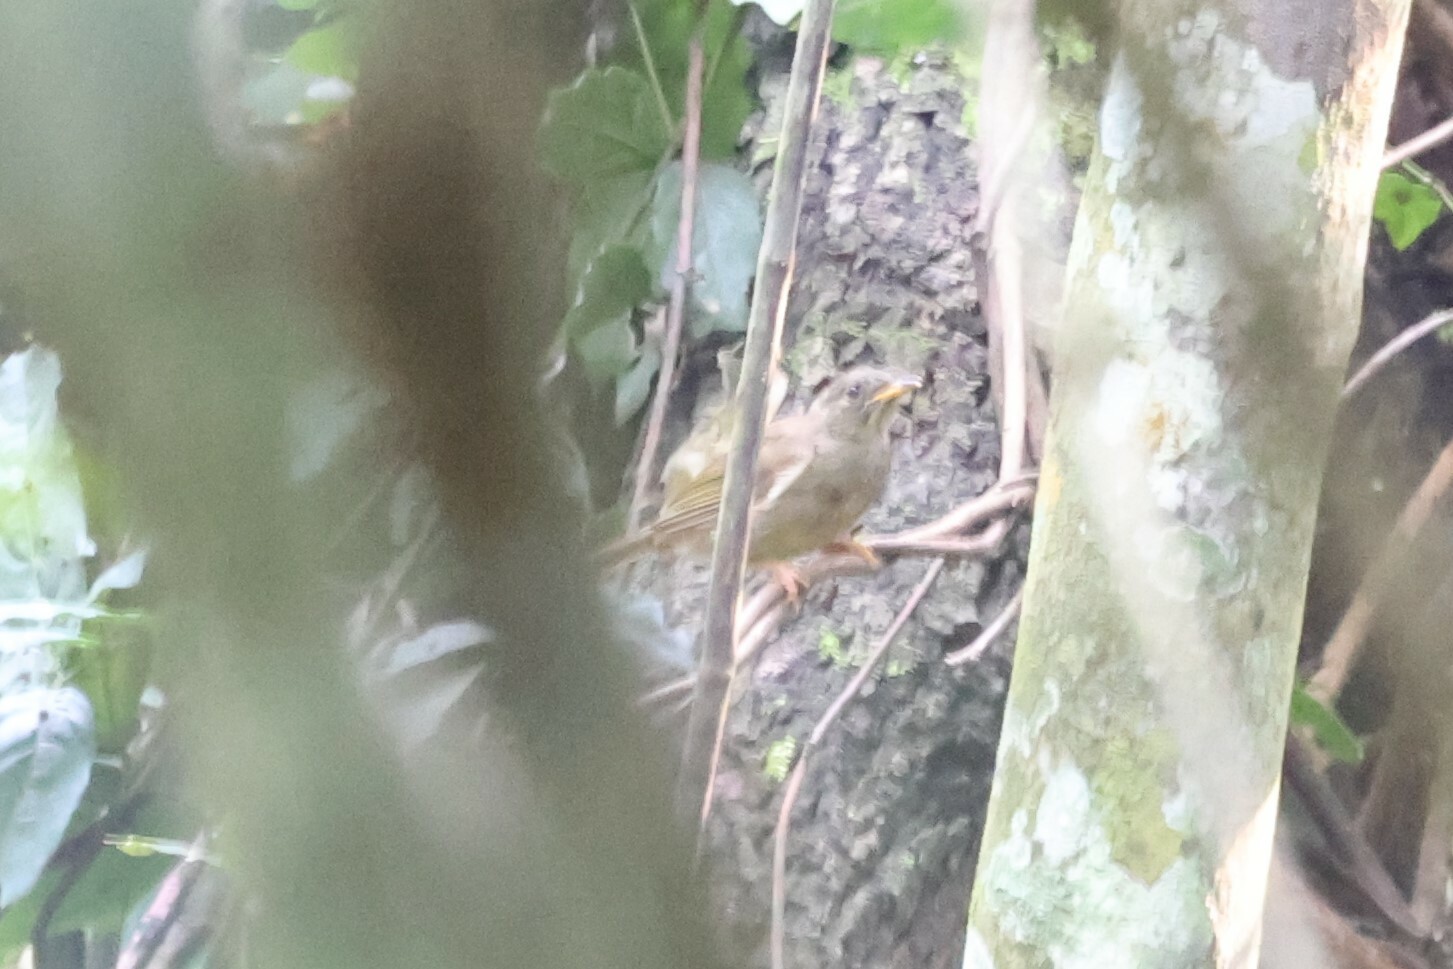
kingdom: Animalia
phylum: Chordata
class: Aves
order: Passeriformes
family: Pycnonotidae
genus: Eurillas
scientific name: Eurillas latirostris
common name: Yellow-whiskered greenbul
